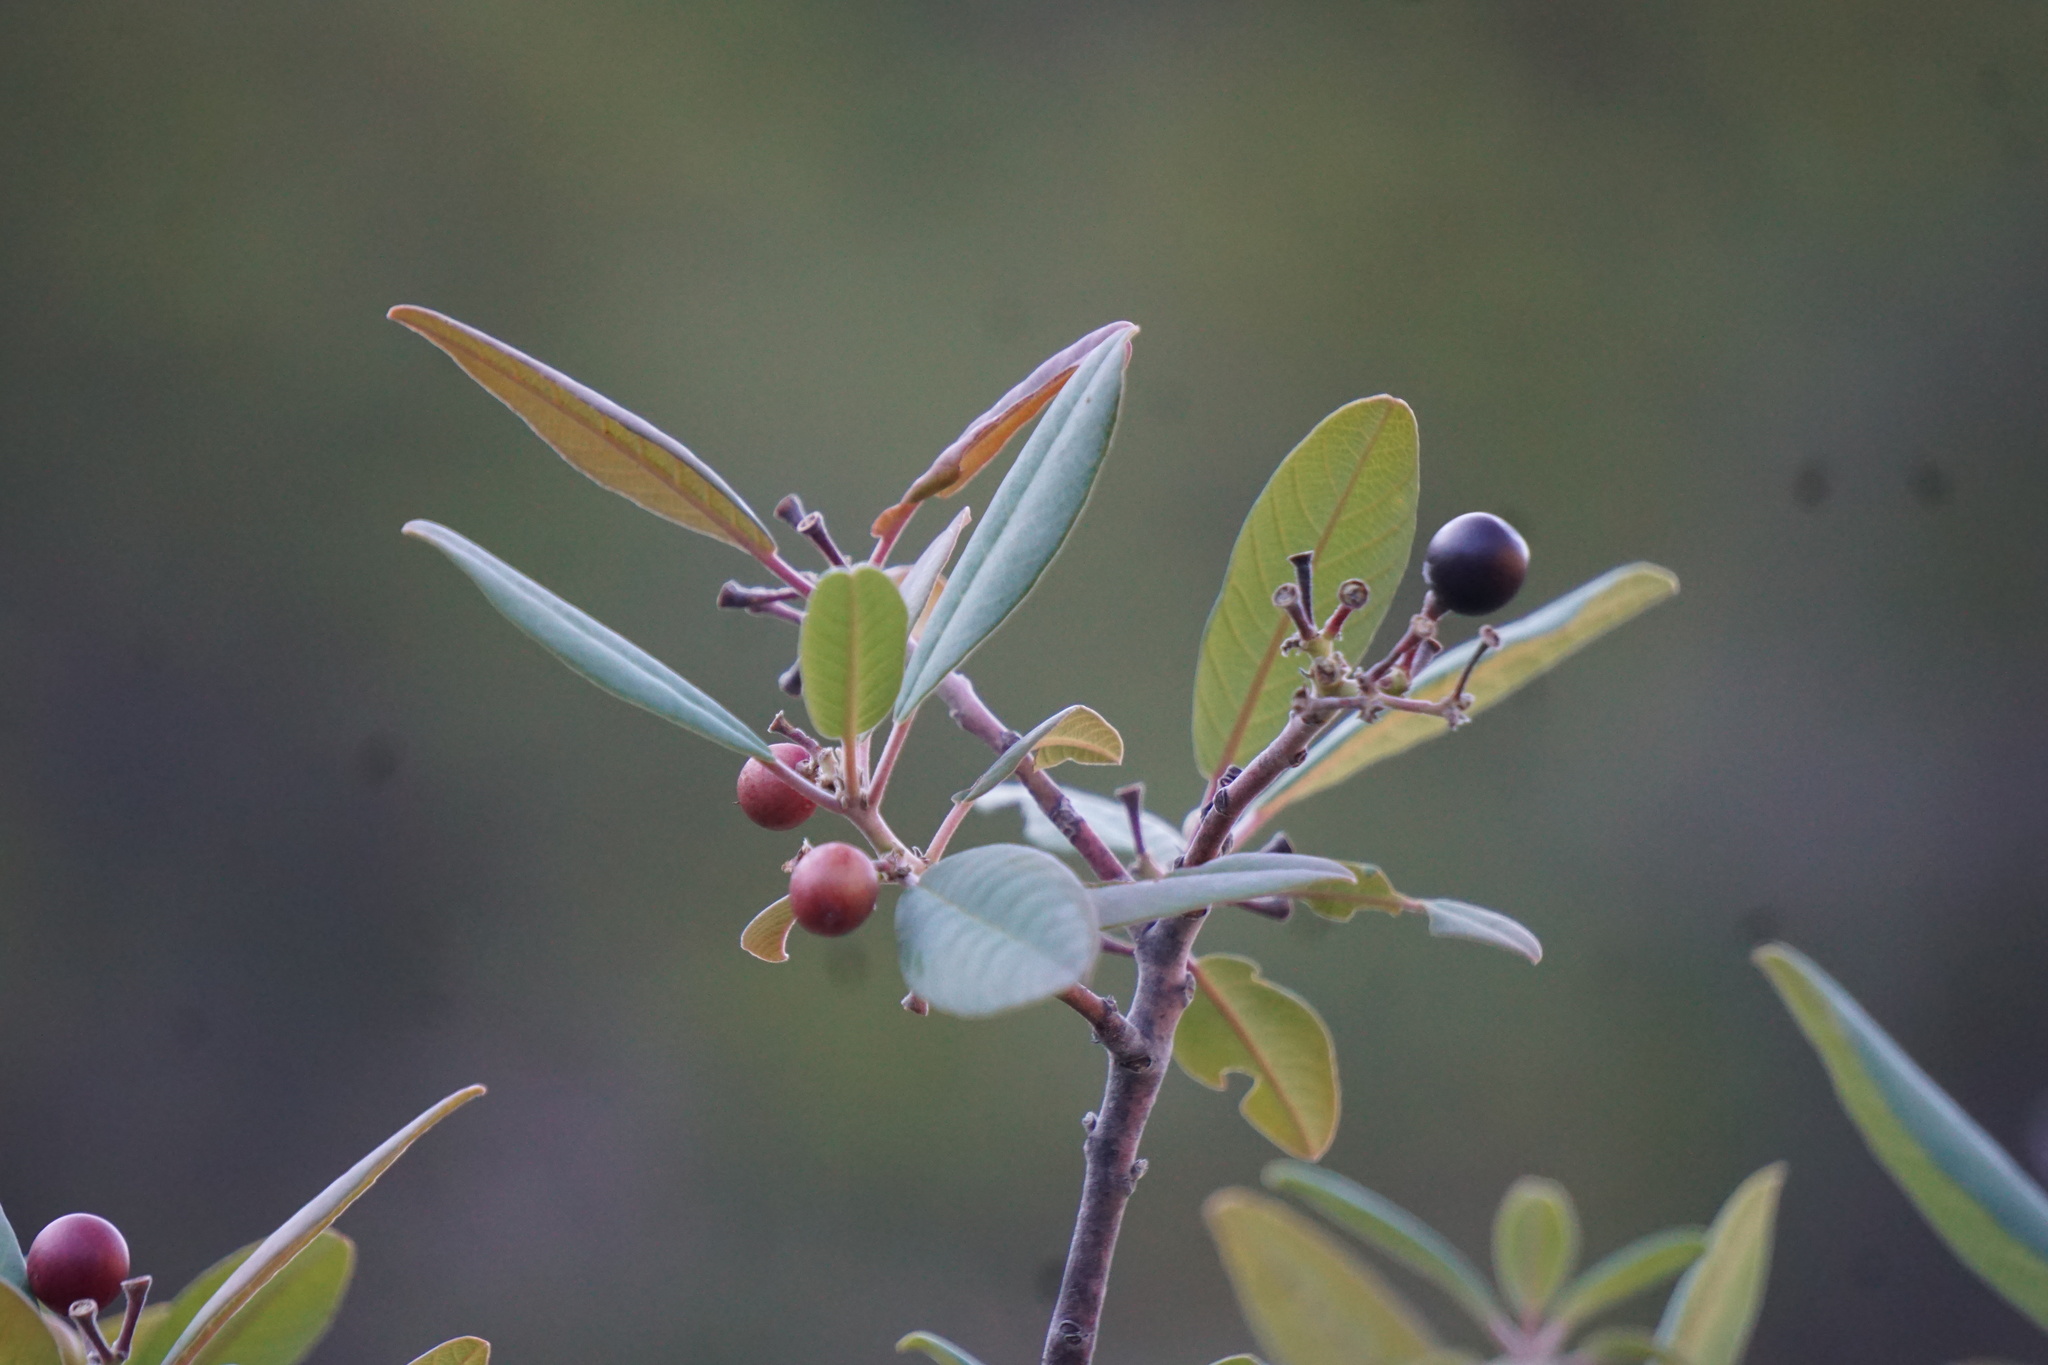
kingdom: Plantae
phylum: Tracheophyta
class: Magnoliopsida
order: Rosales
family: Rhamnaceae
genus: Frangula
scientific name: Frangula californica
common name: California buckthorn
